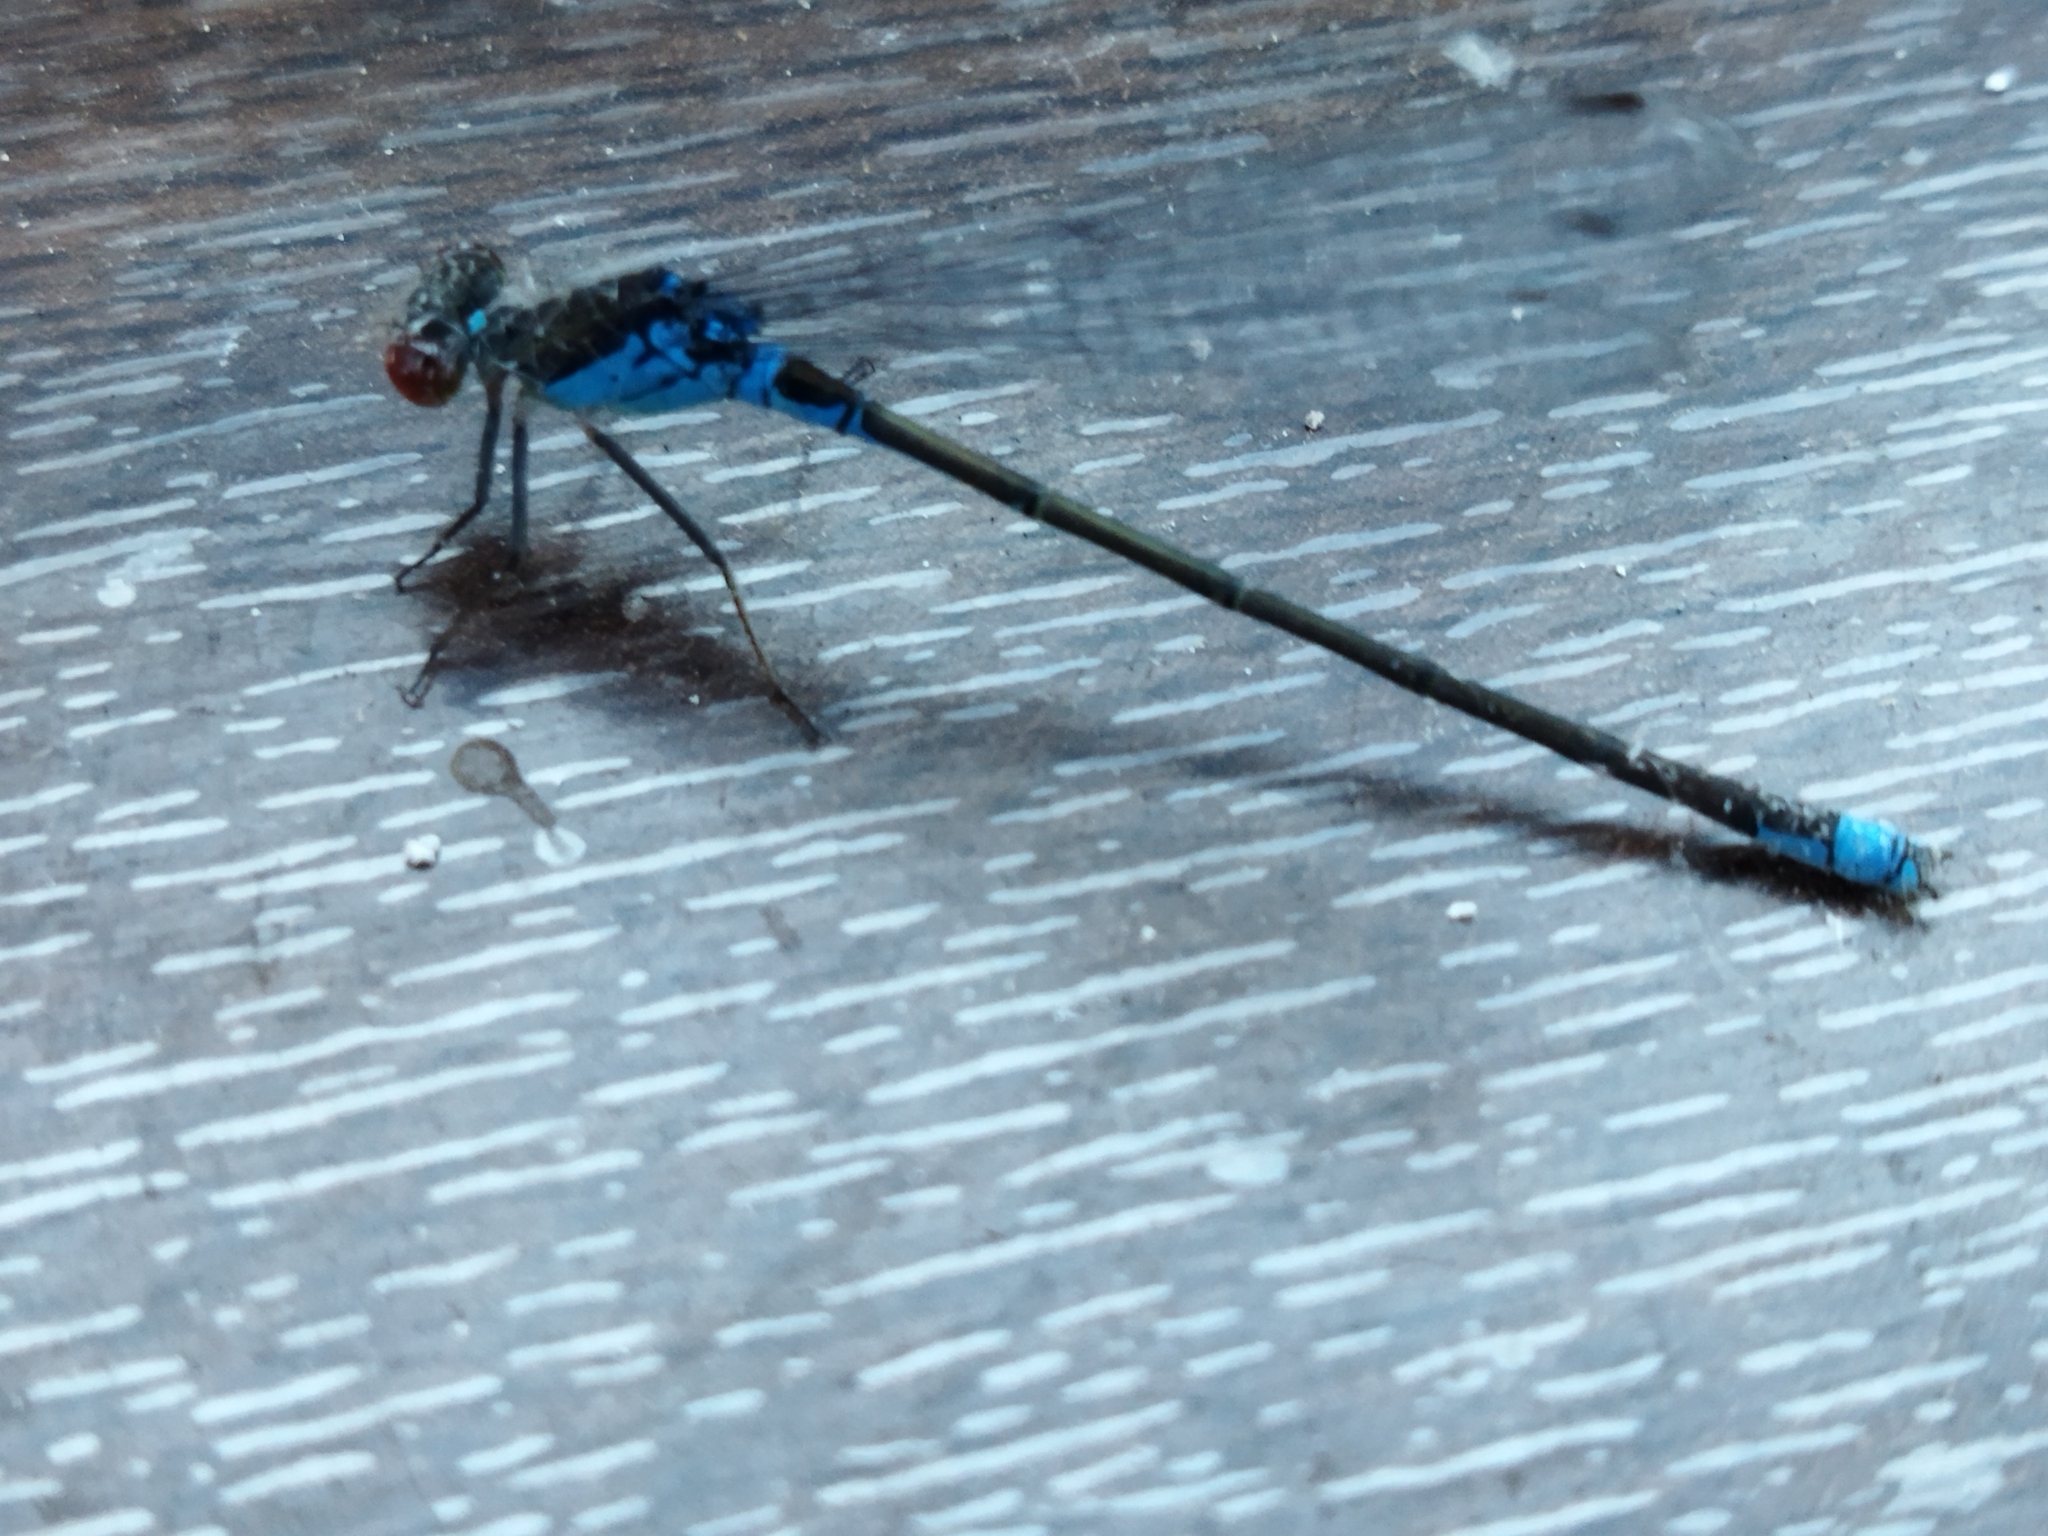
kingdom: Animalia
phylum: Arthropoda
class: Insecta
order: Odonata
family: Coenagrionidae
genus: Erythromma
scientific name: Erythromma viridulum
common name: Small red-eyed damselfly
